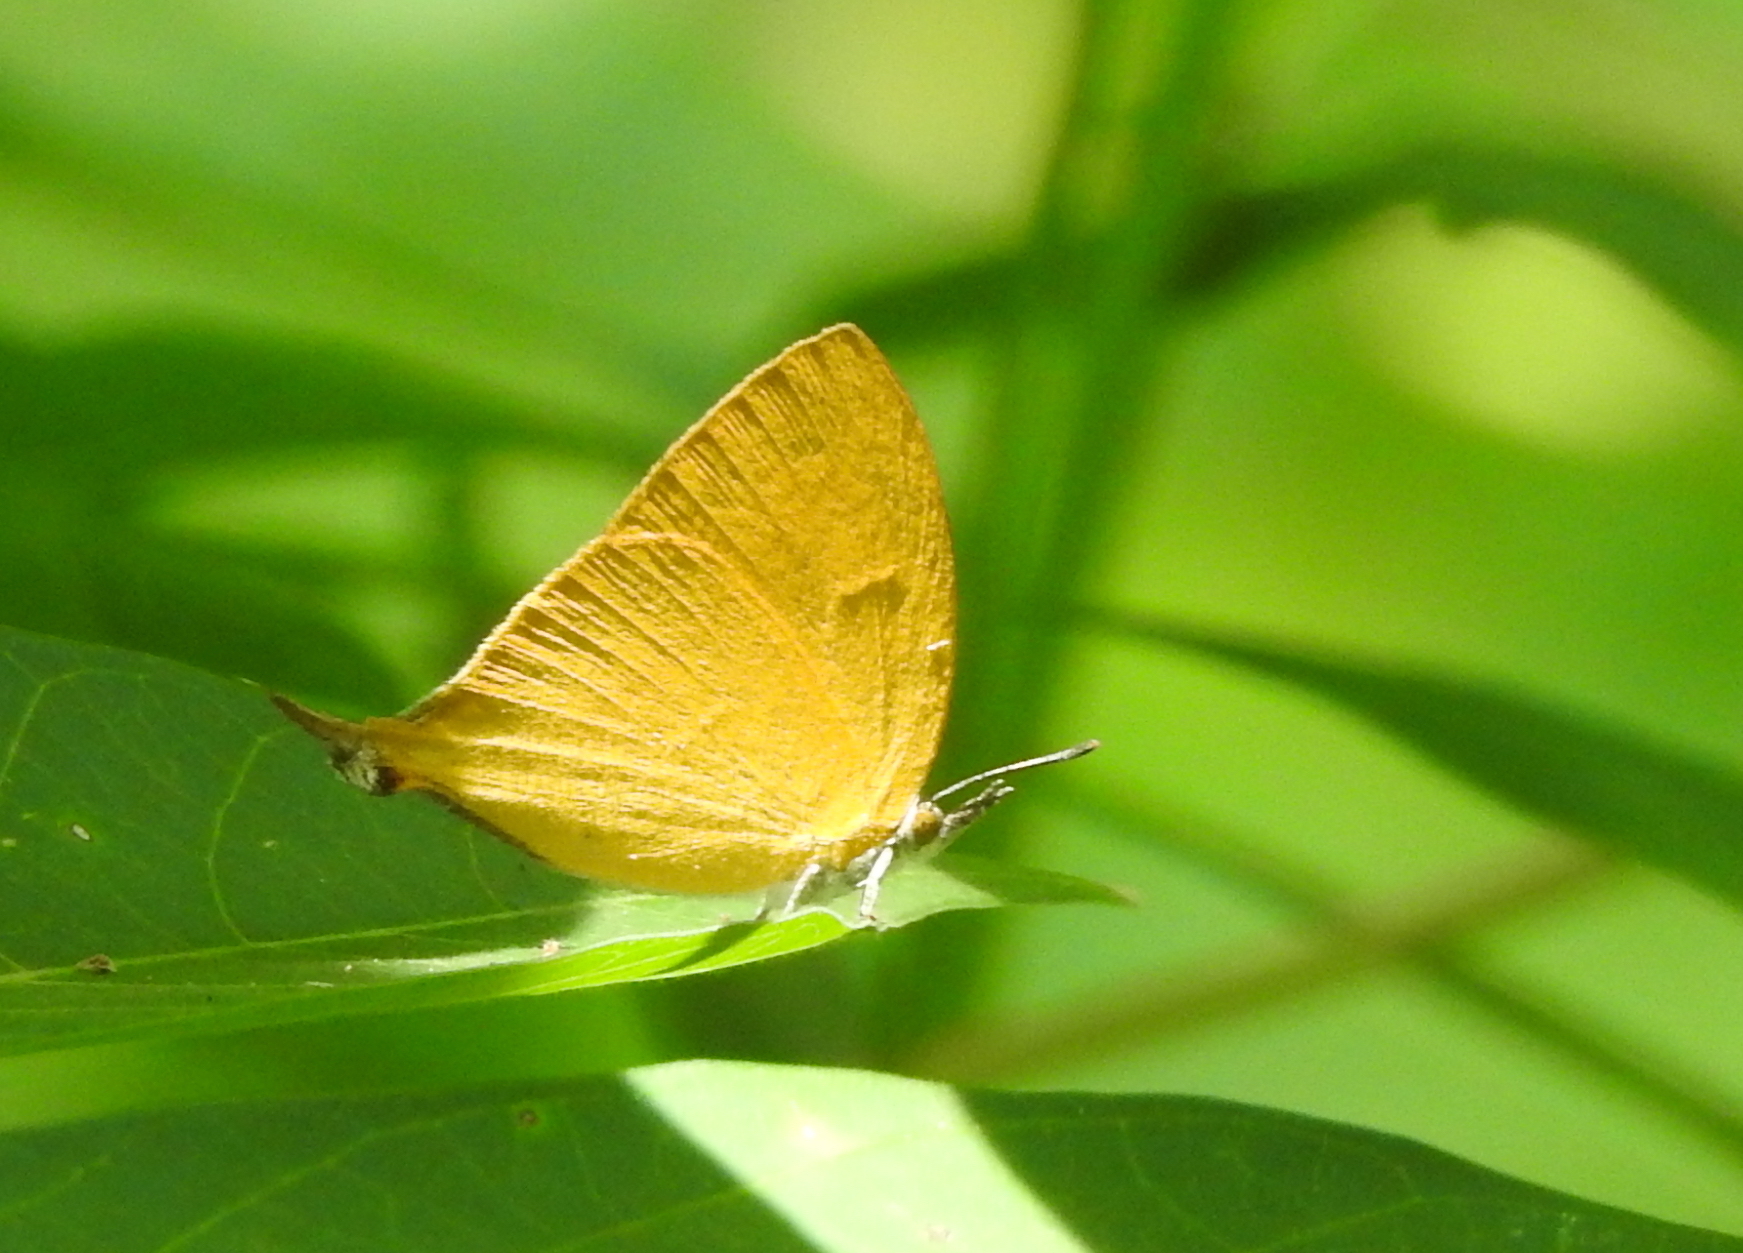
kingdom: Animalia
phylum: Arthropoda
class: Insecta
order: Lepidoptera
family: Lycaenidae
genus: Loxura
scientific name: Loxura atymnus
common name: Common yamfly
